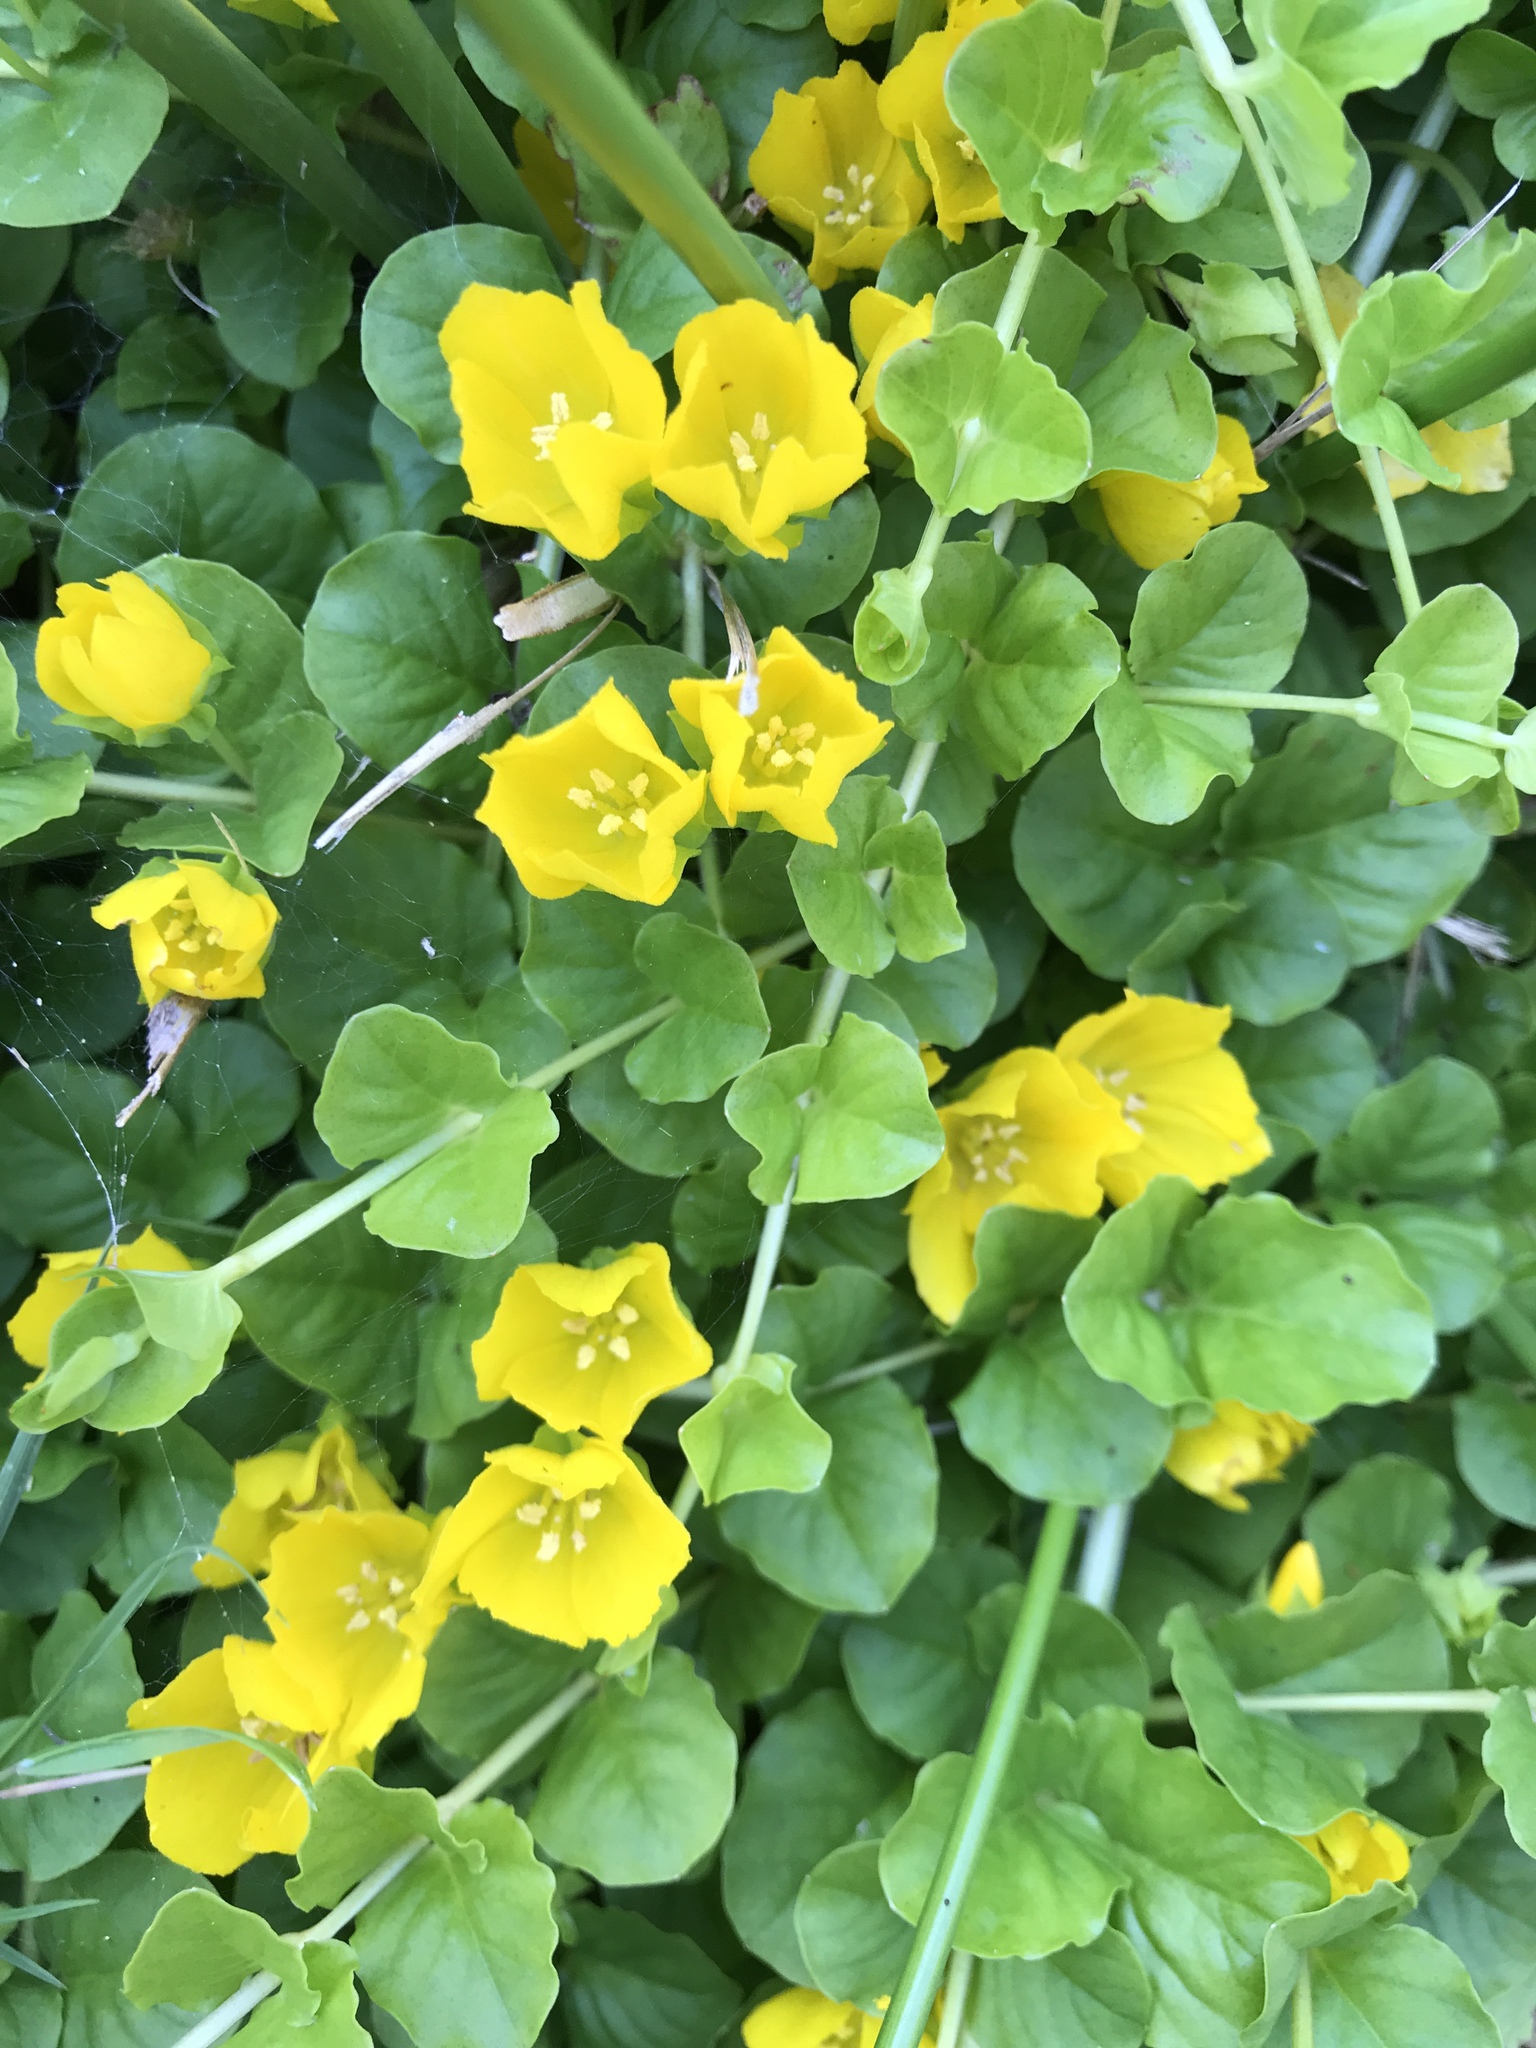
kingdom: Plantae
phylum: Tracheophyta
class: Magnoliopsida
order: Ericales
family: Primulaceae
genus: Lysimachia
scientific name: Lysimachia nummularia
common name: Moneywort
